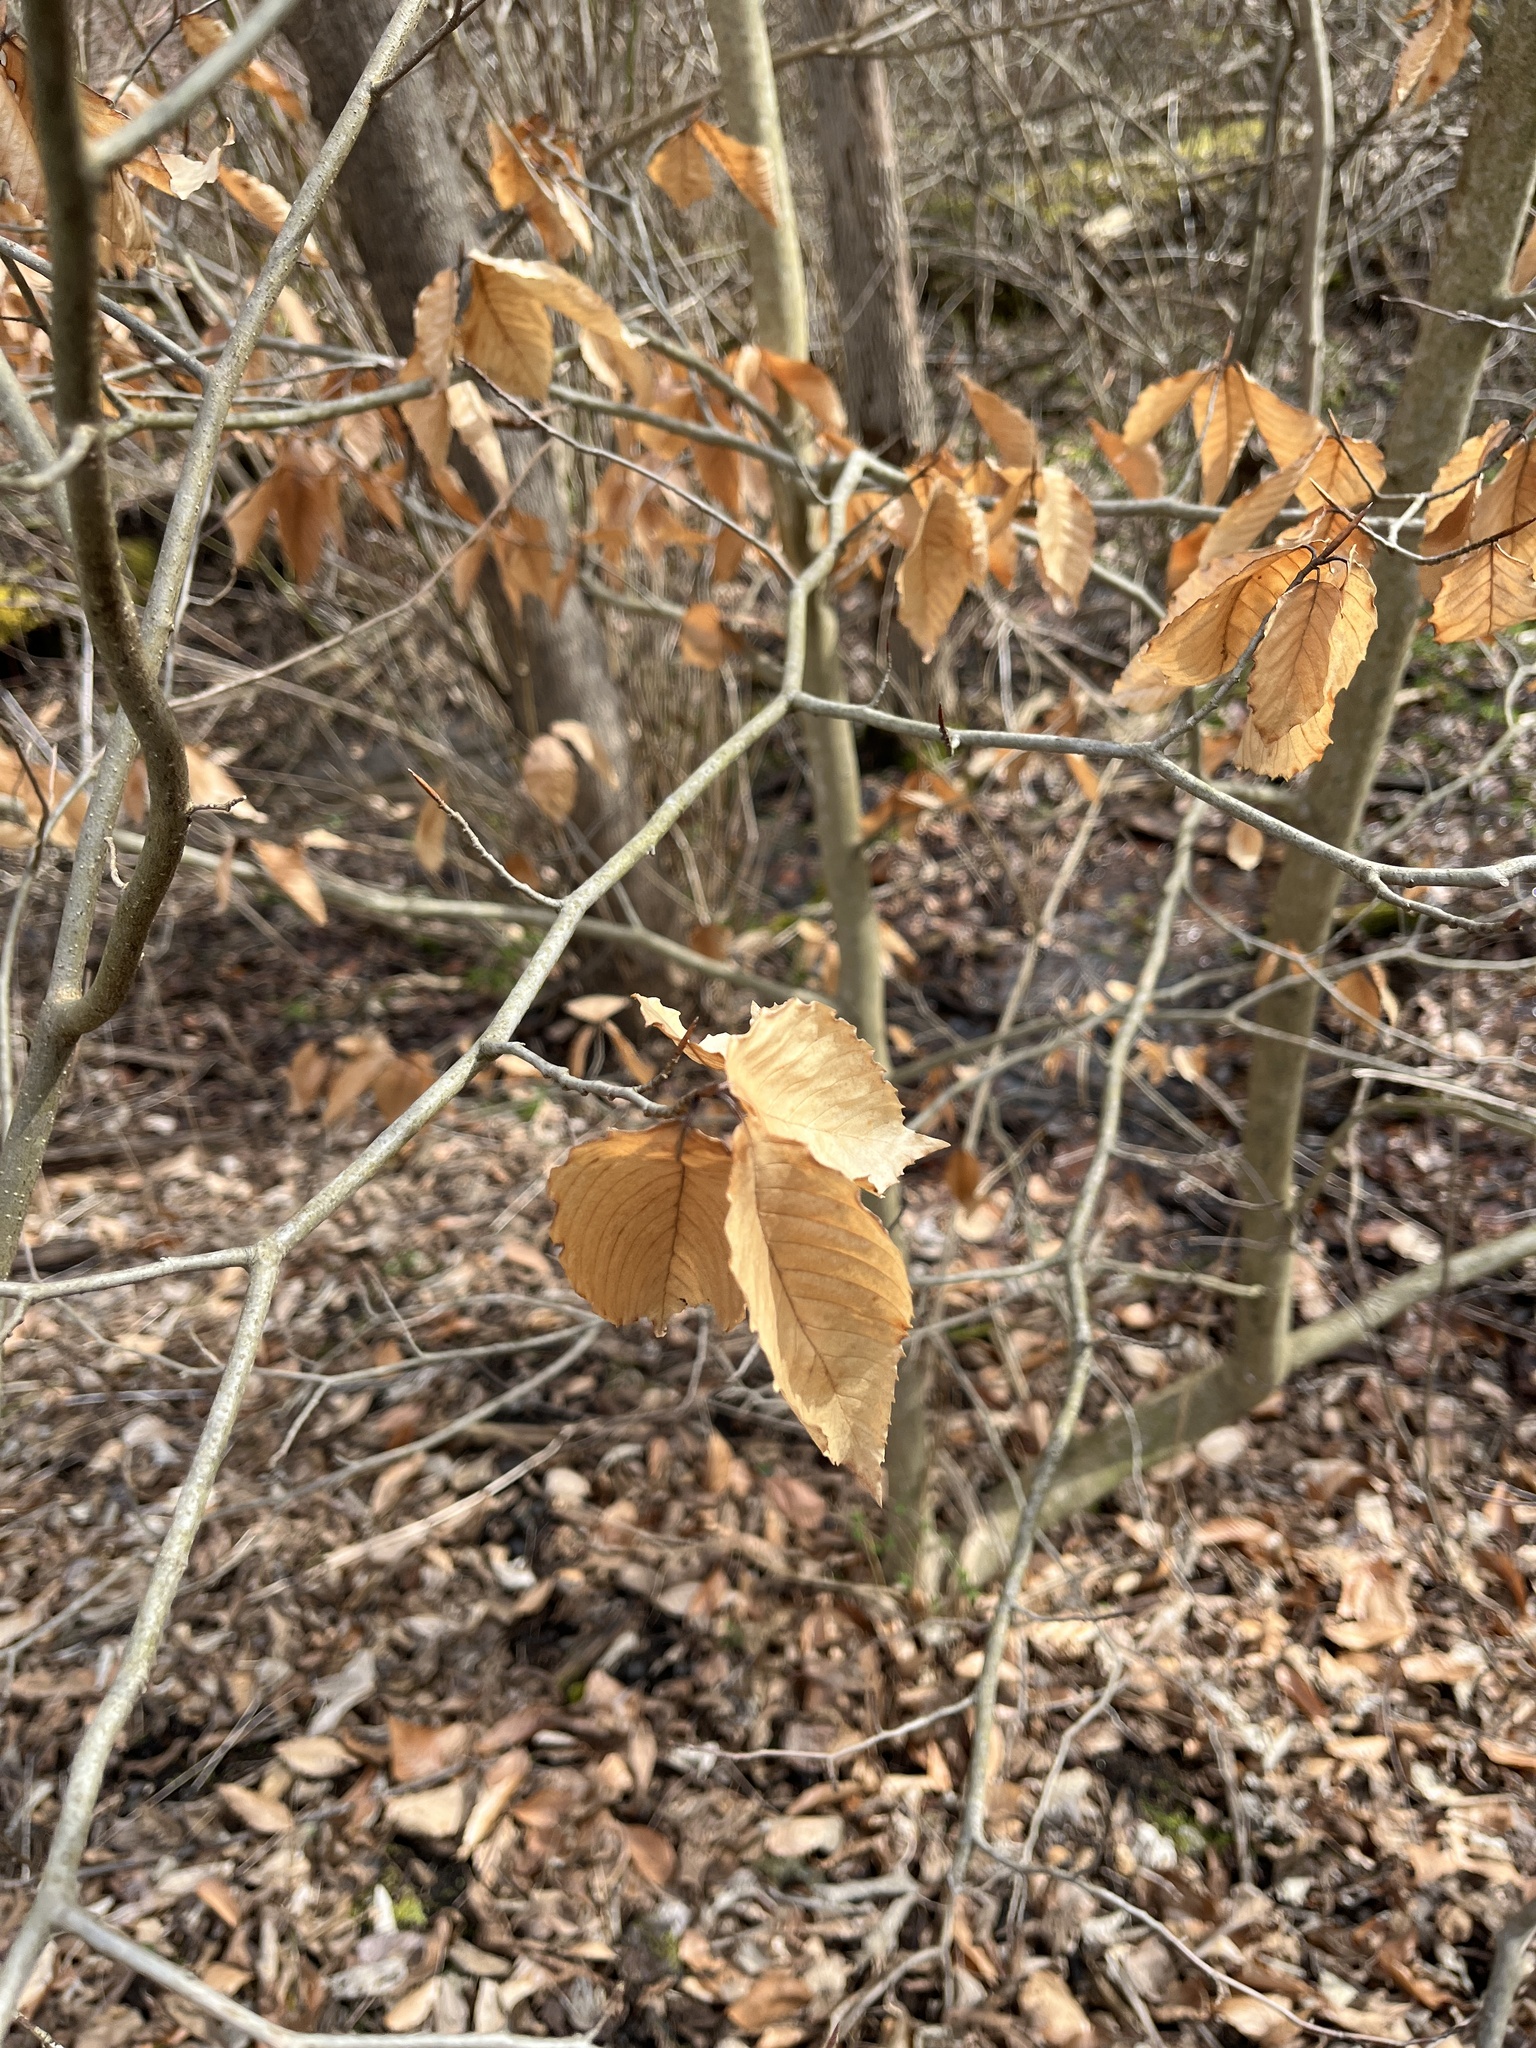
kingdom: Plantae
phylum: Tracheophyta
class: Magnoliopsida
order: Fagales
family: Fagaceae
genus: Fagus
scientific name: Fagus grandifolia
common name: American beech
